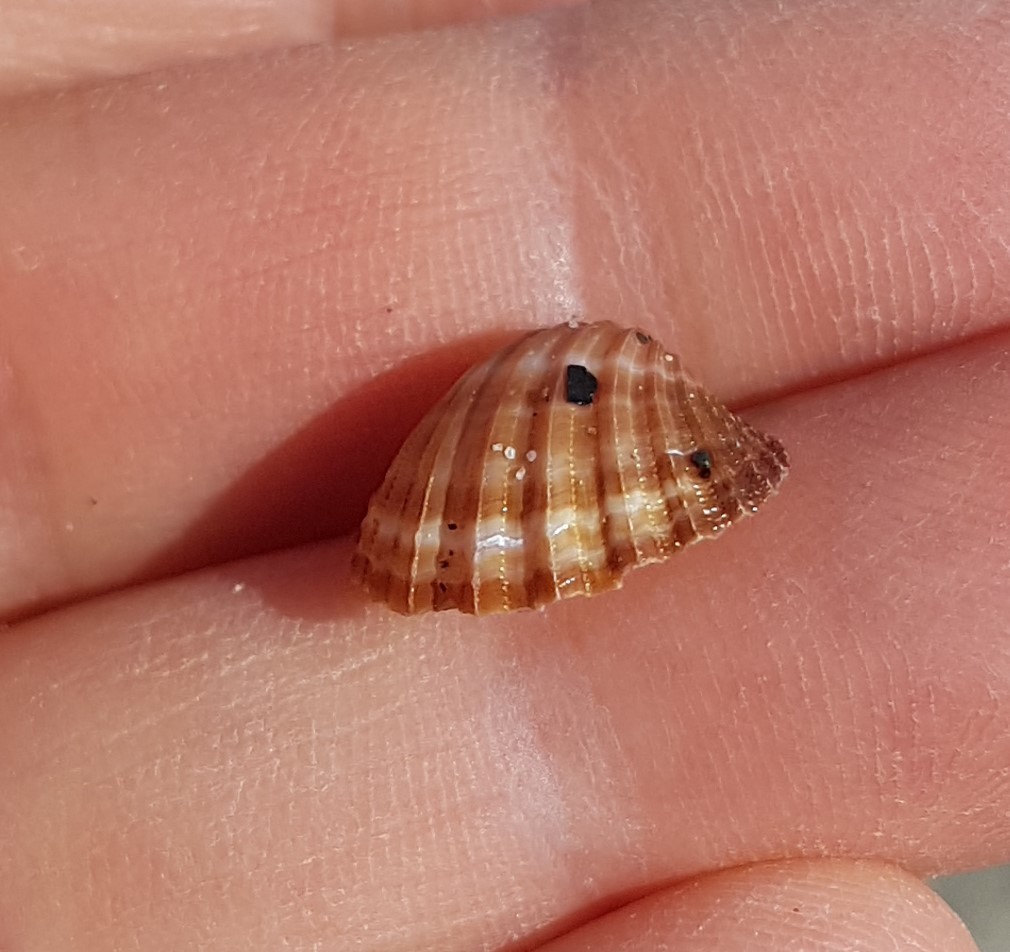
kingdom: Animalia
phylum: Mollusca
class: Bivalvia
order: Cardiida
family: Cardiidae
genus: Acanthocardia
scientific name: Acanthocardia paucicostata
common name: Poorly ribbed cockle
